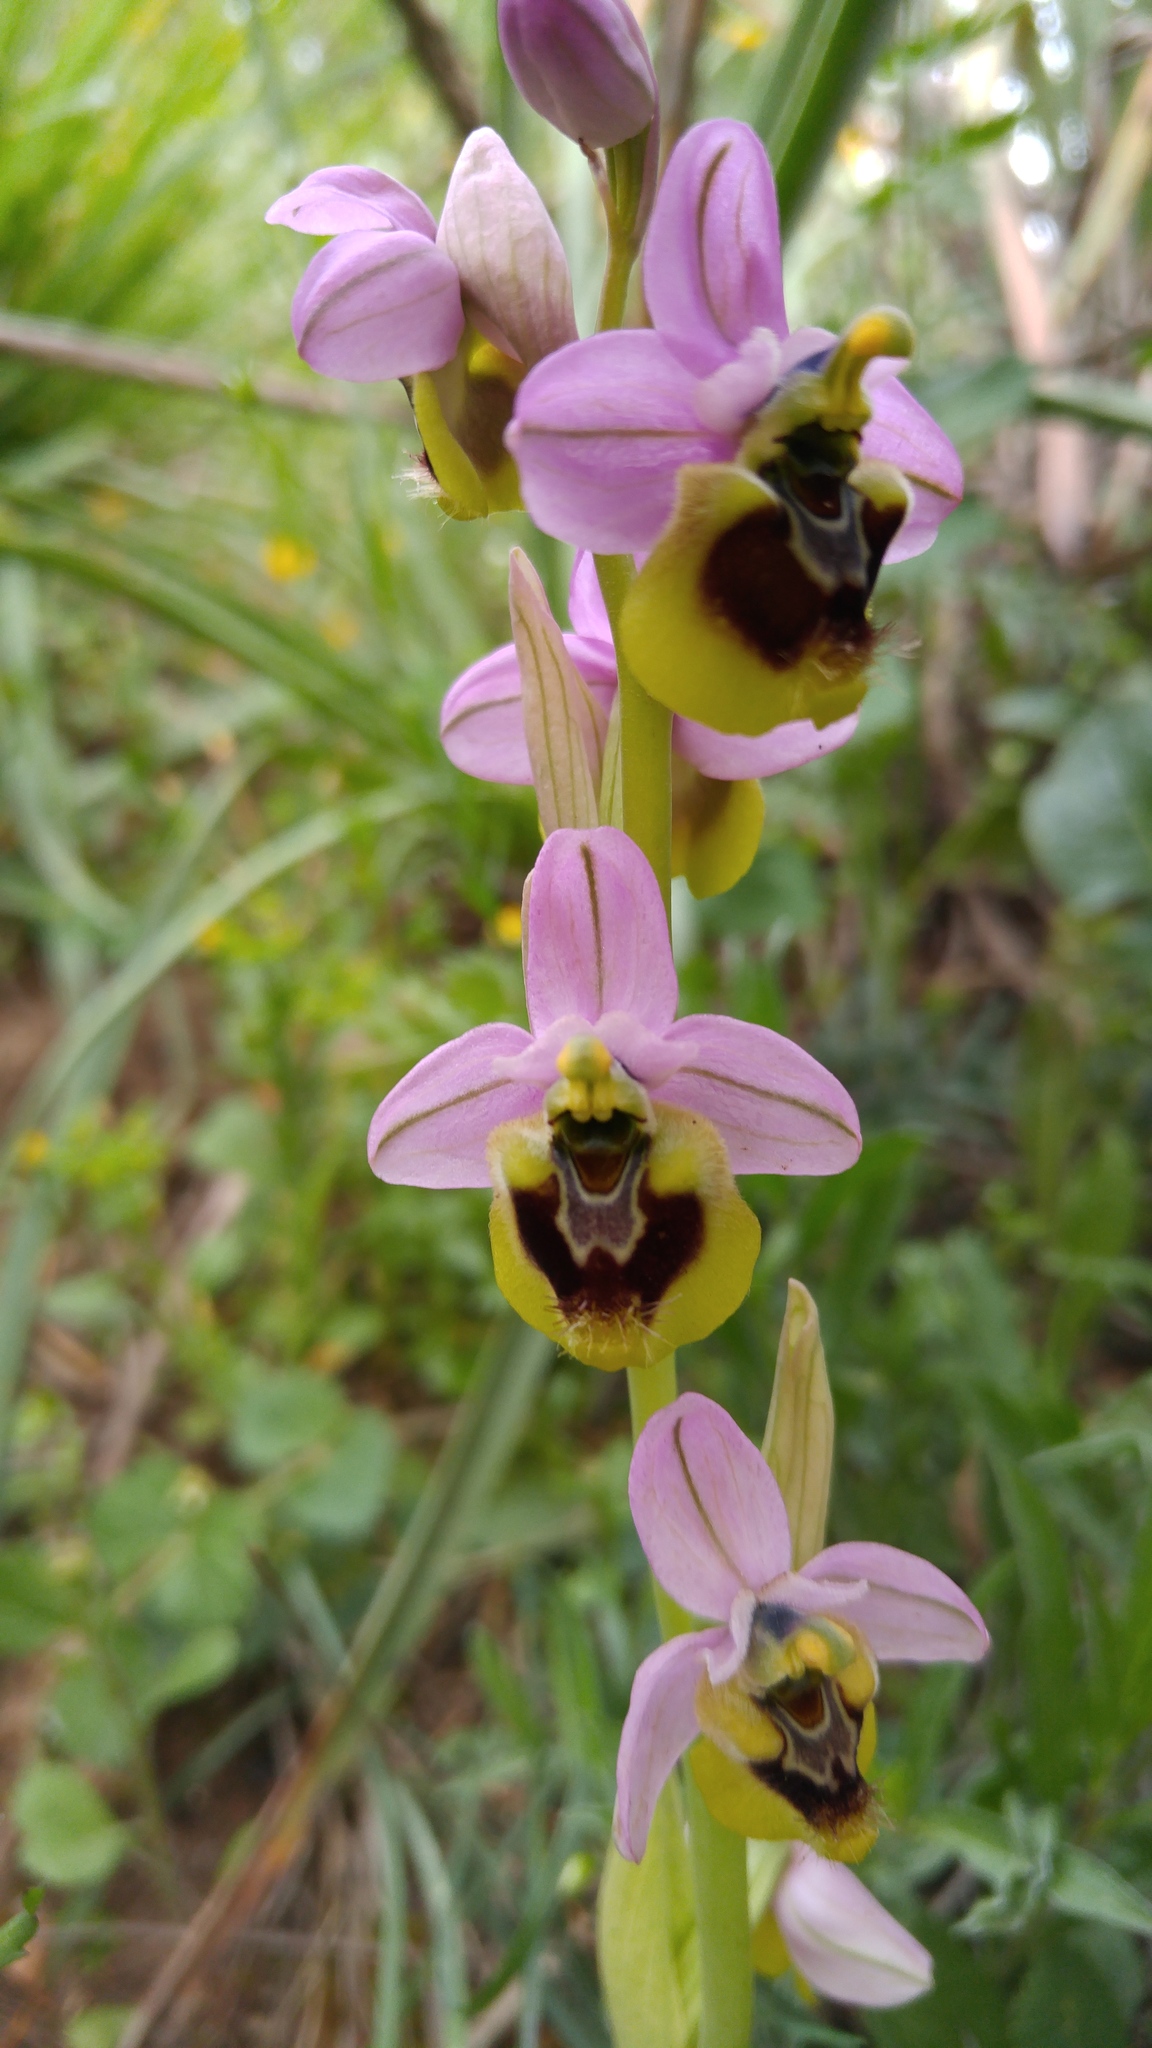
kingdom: Plantae
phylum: Tracheophyta
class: Liliopsida
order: Asparagales
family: Orchidaceae
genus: Ophrys
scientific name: Ophrys tenthredinifera
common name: Sawfly orchid
